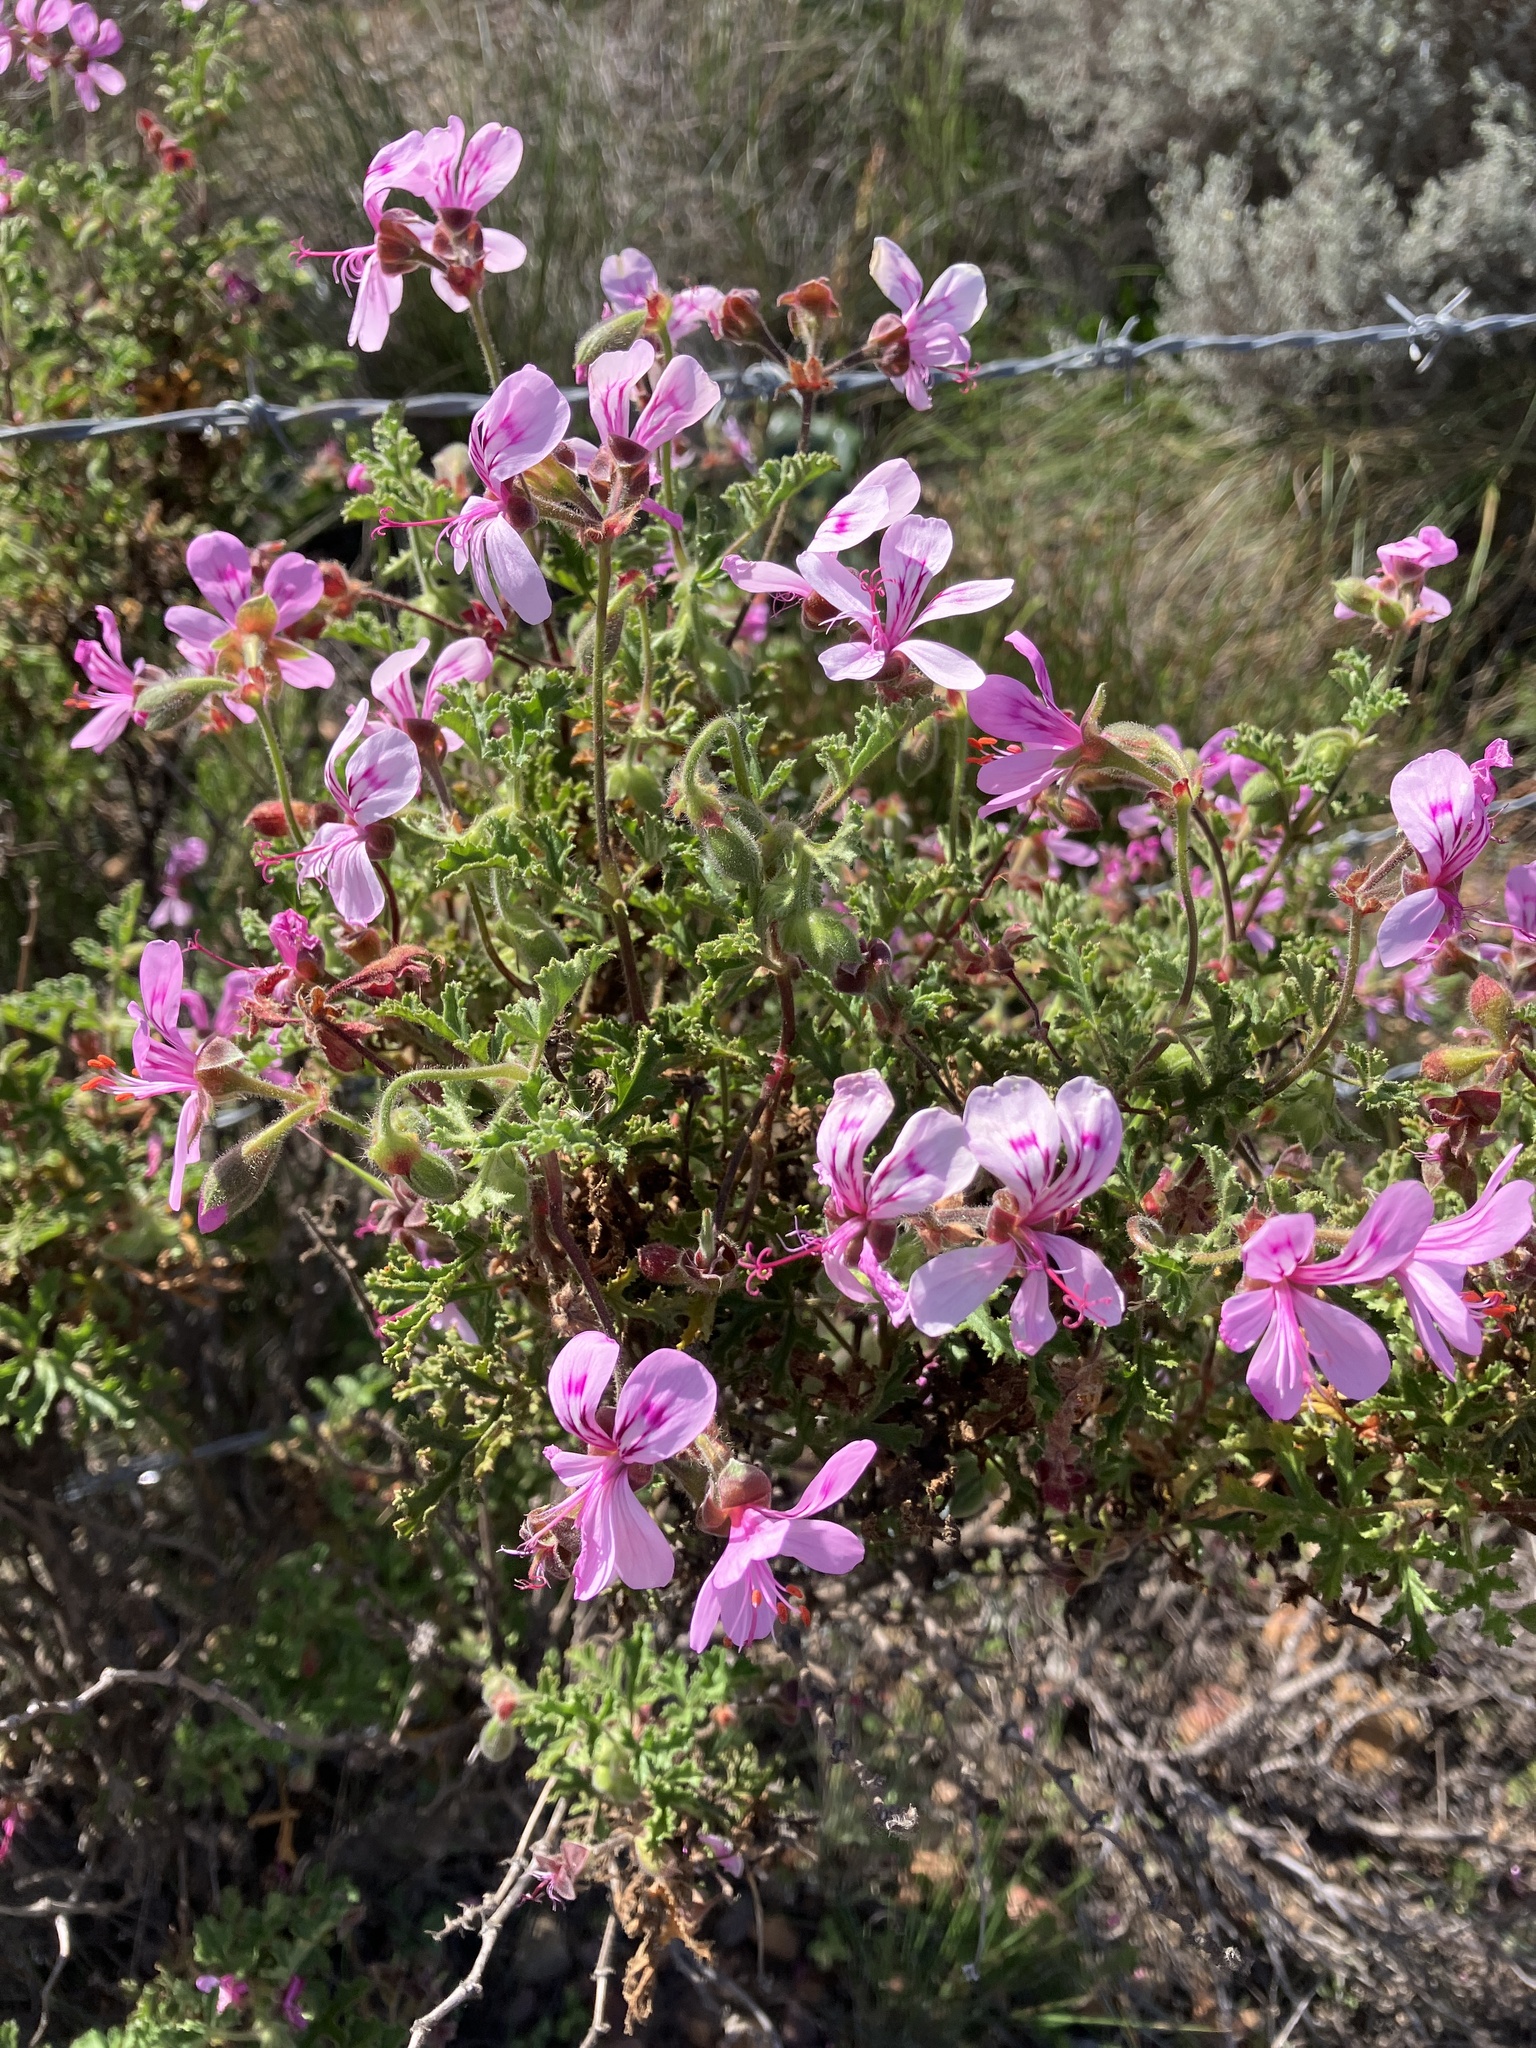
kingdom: Plantae
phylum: Tracheophyta
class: Magnoliopsida
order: Geraniales
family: Geraniaceae
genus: Pelargonium
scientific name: Pelargonium quercifolium
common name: Oakleaf geranium
